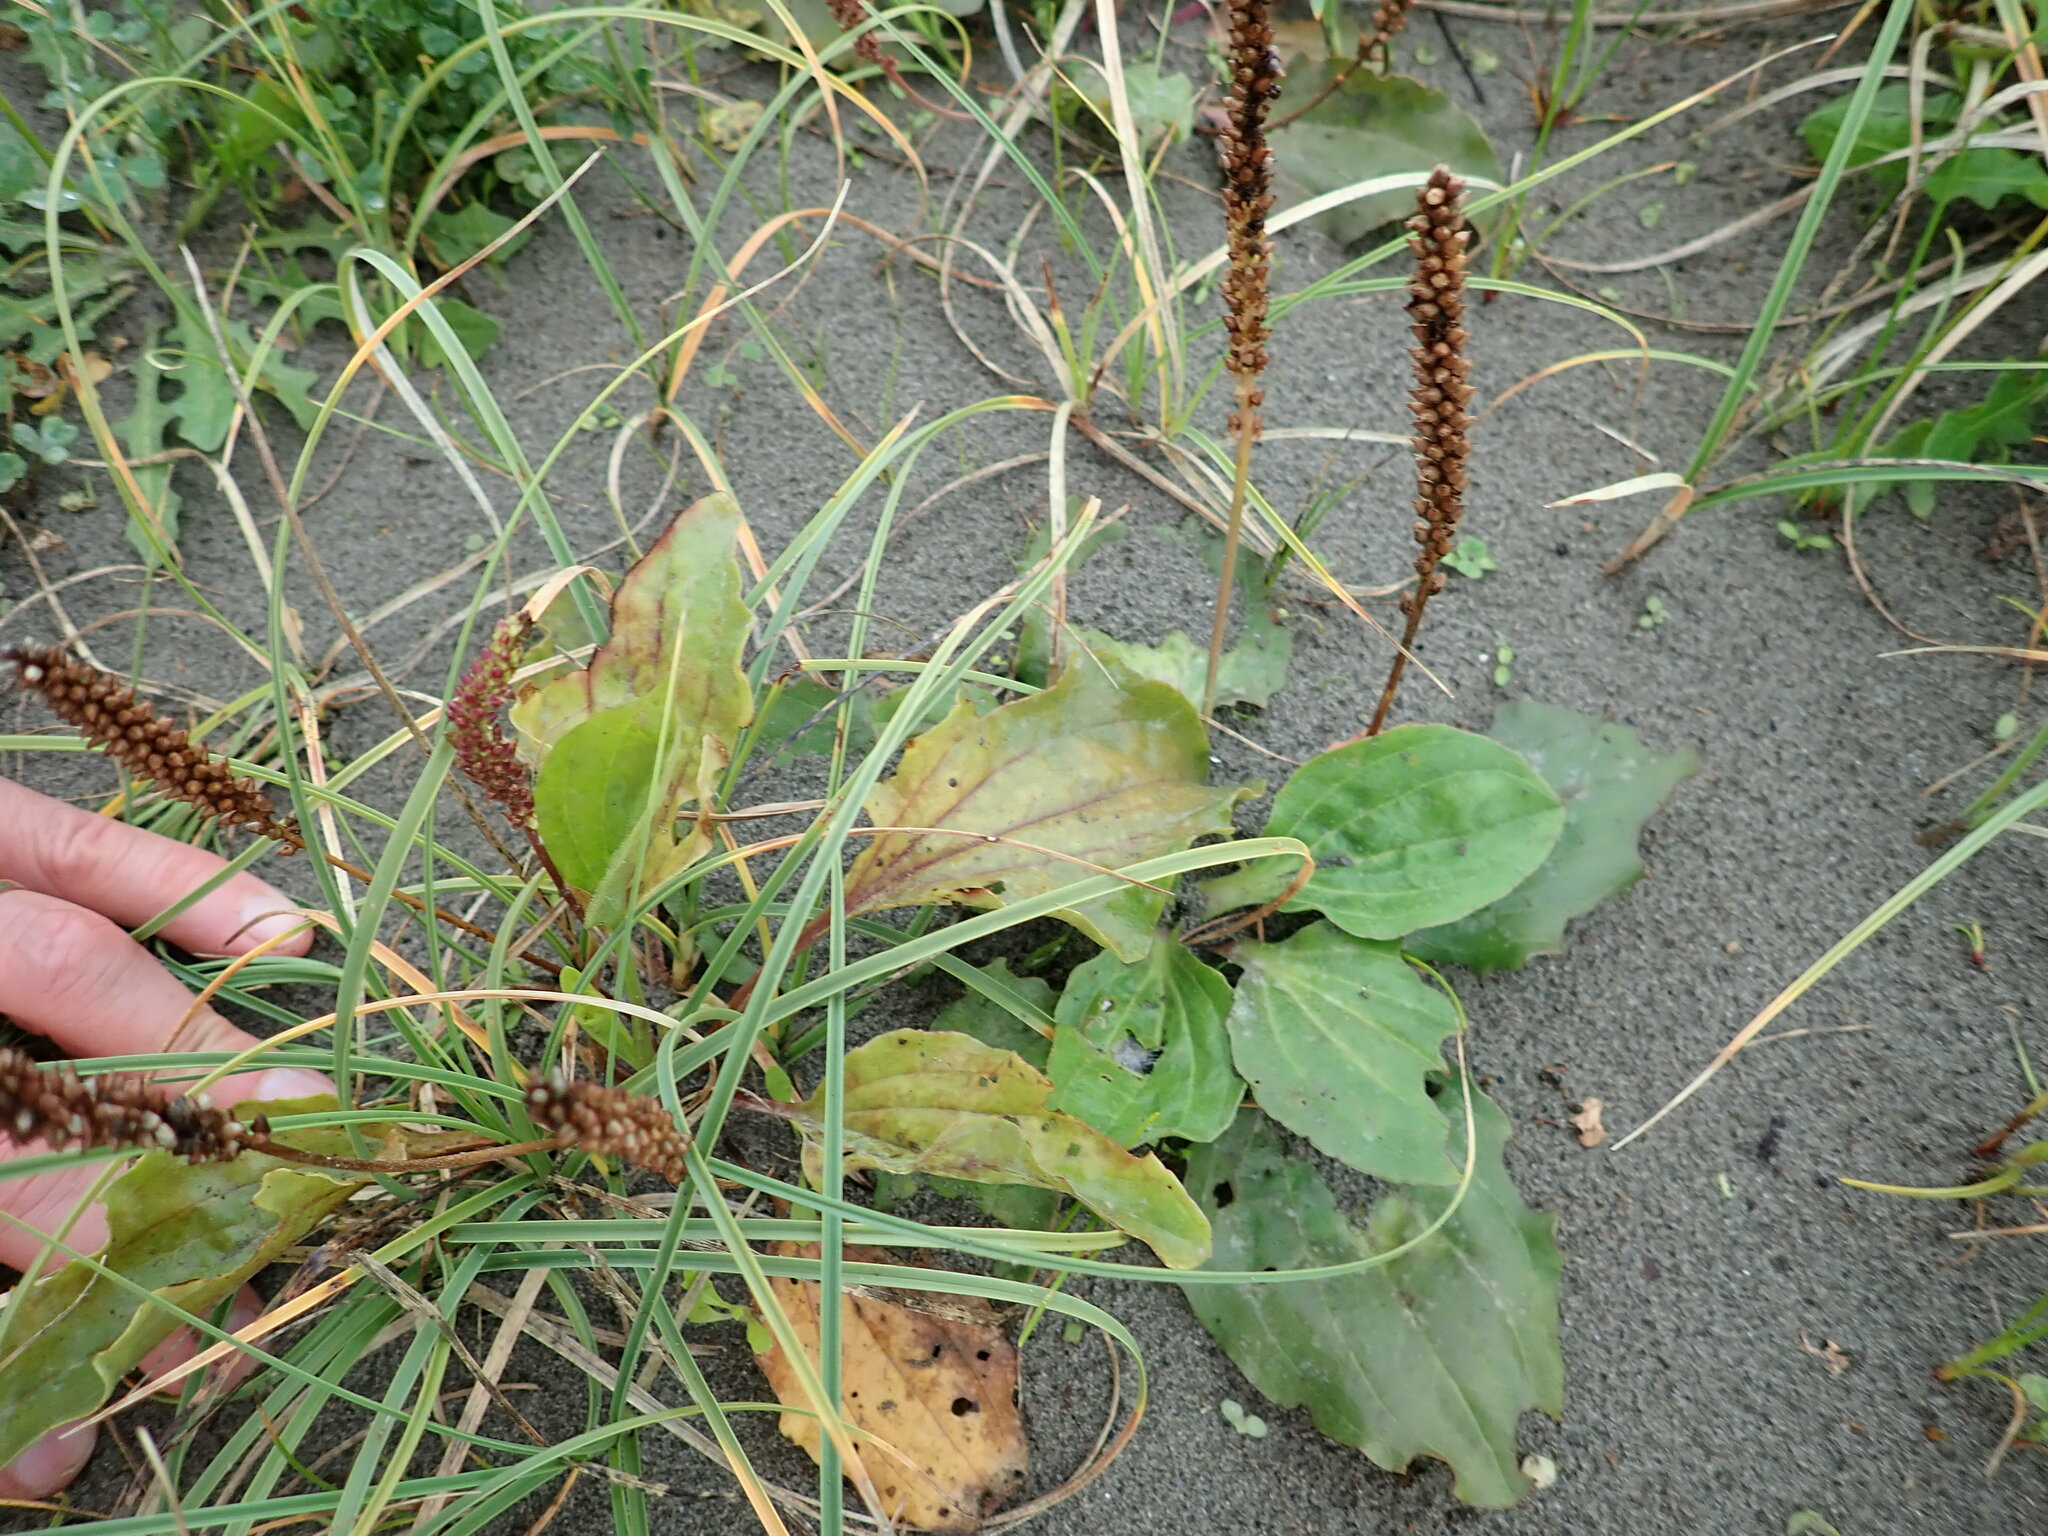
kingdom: Plantae
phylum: Tracheophyta
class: Magnoliopsida
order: Lamiales
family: Plantaginaceae
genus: Plantago
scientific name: Plantago major
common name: Common plantain
